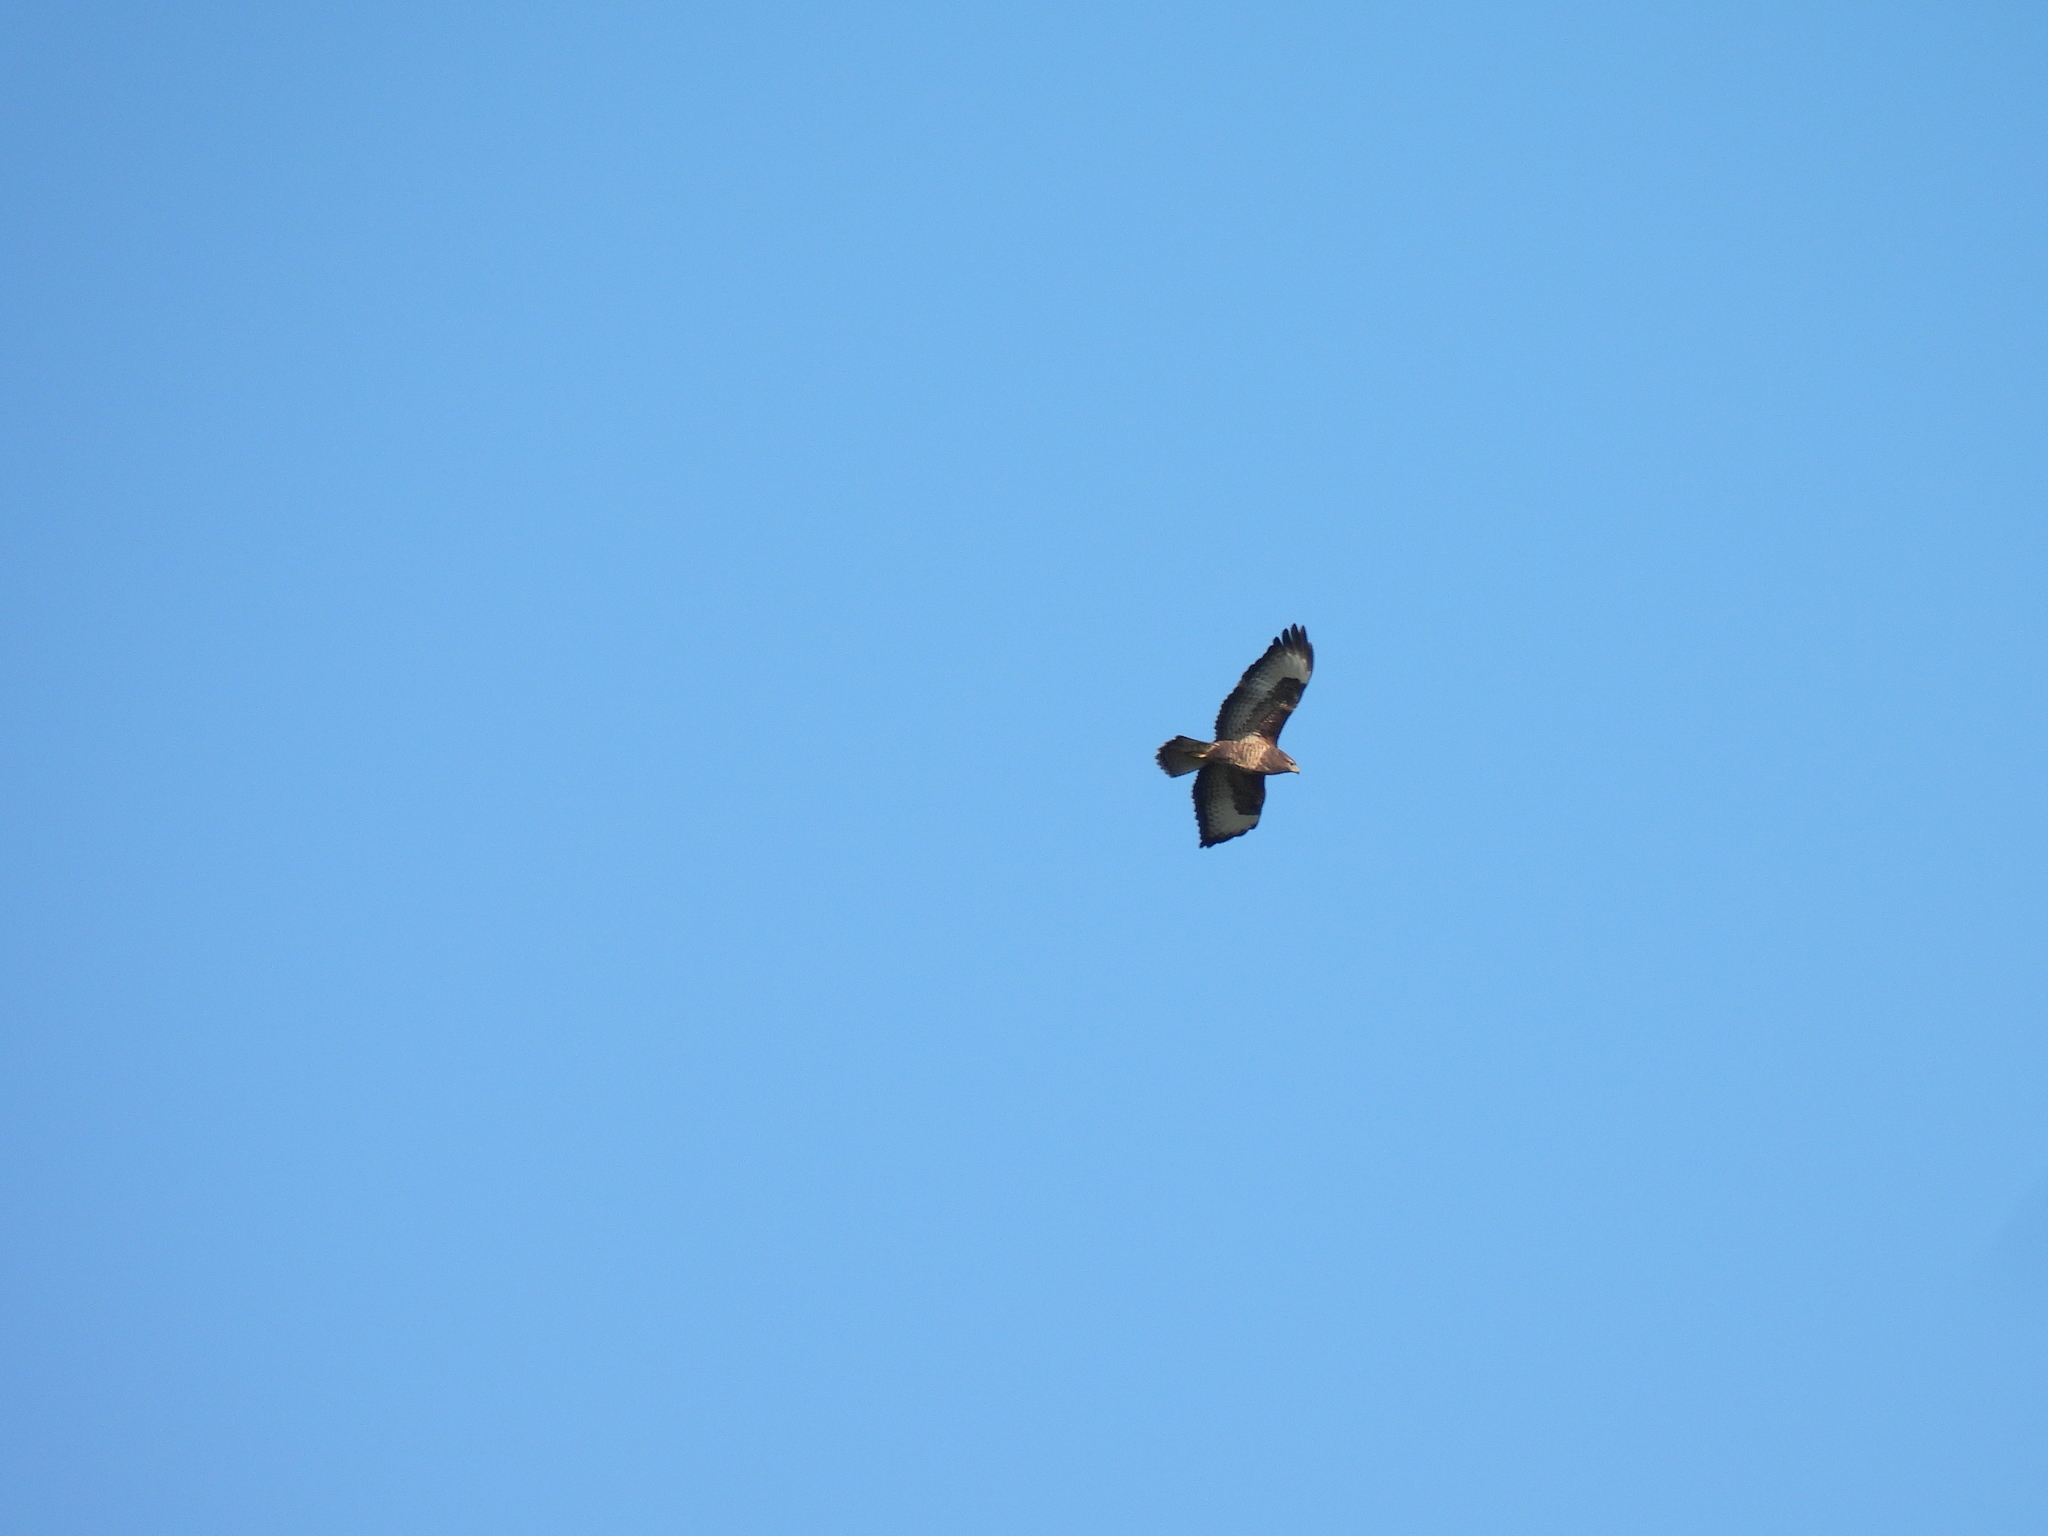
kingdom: Animalia
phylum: Chordata
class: Aves
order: Accipitriformes
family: Accipitridae
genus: Buteo
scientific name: Buteo buteo
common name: Common buzzard
